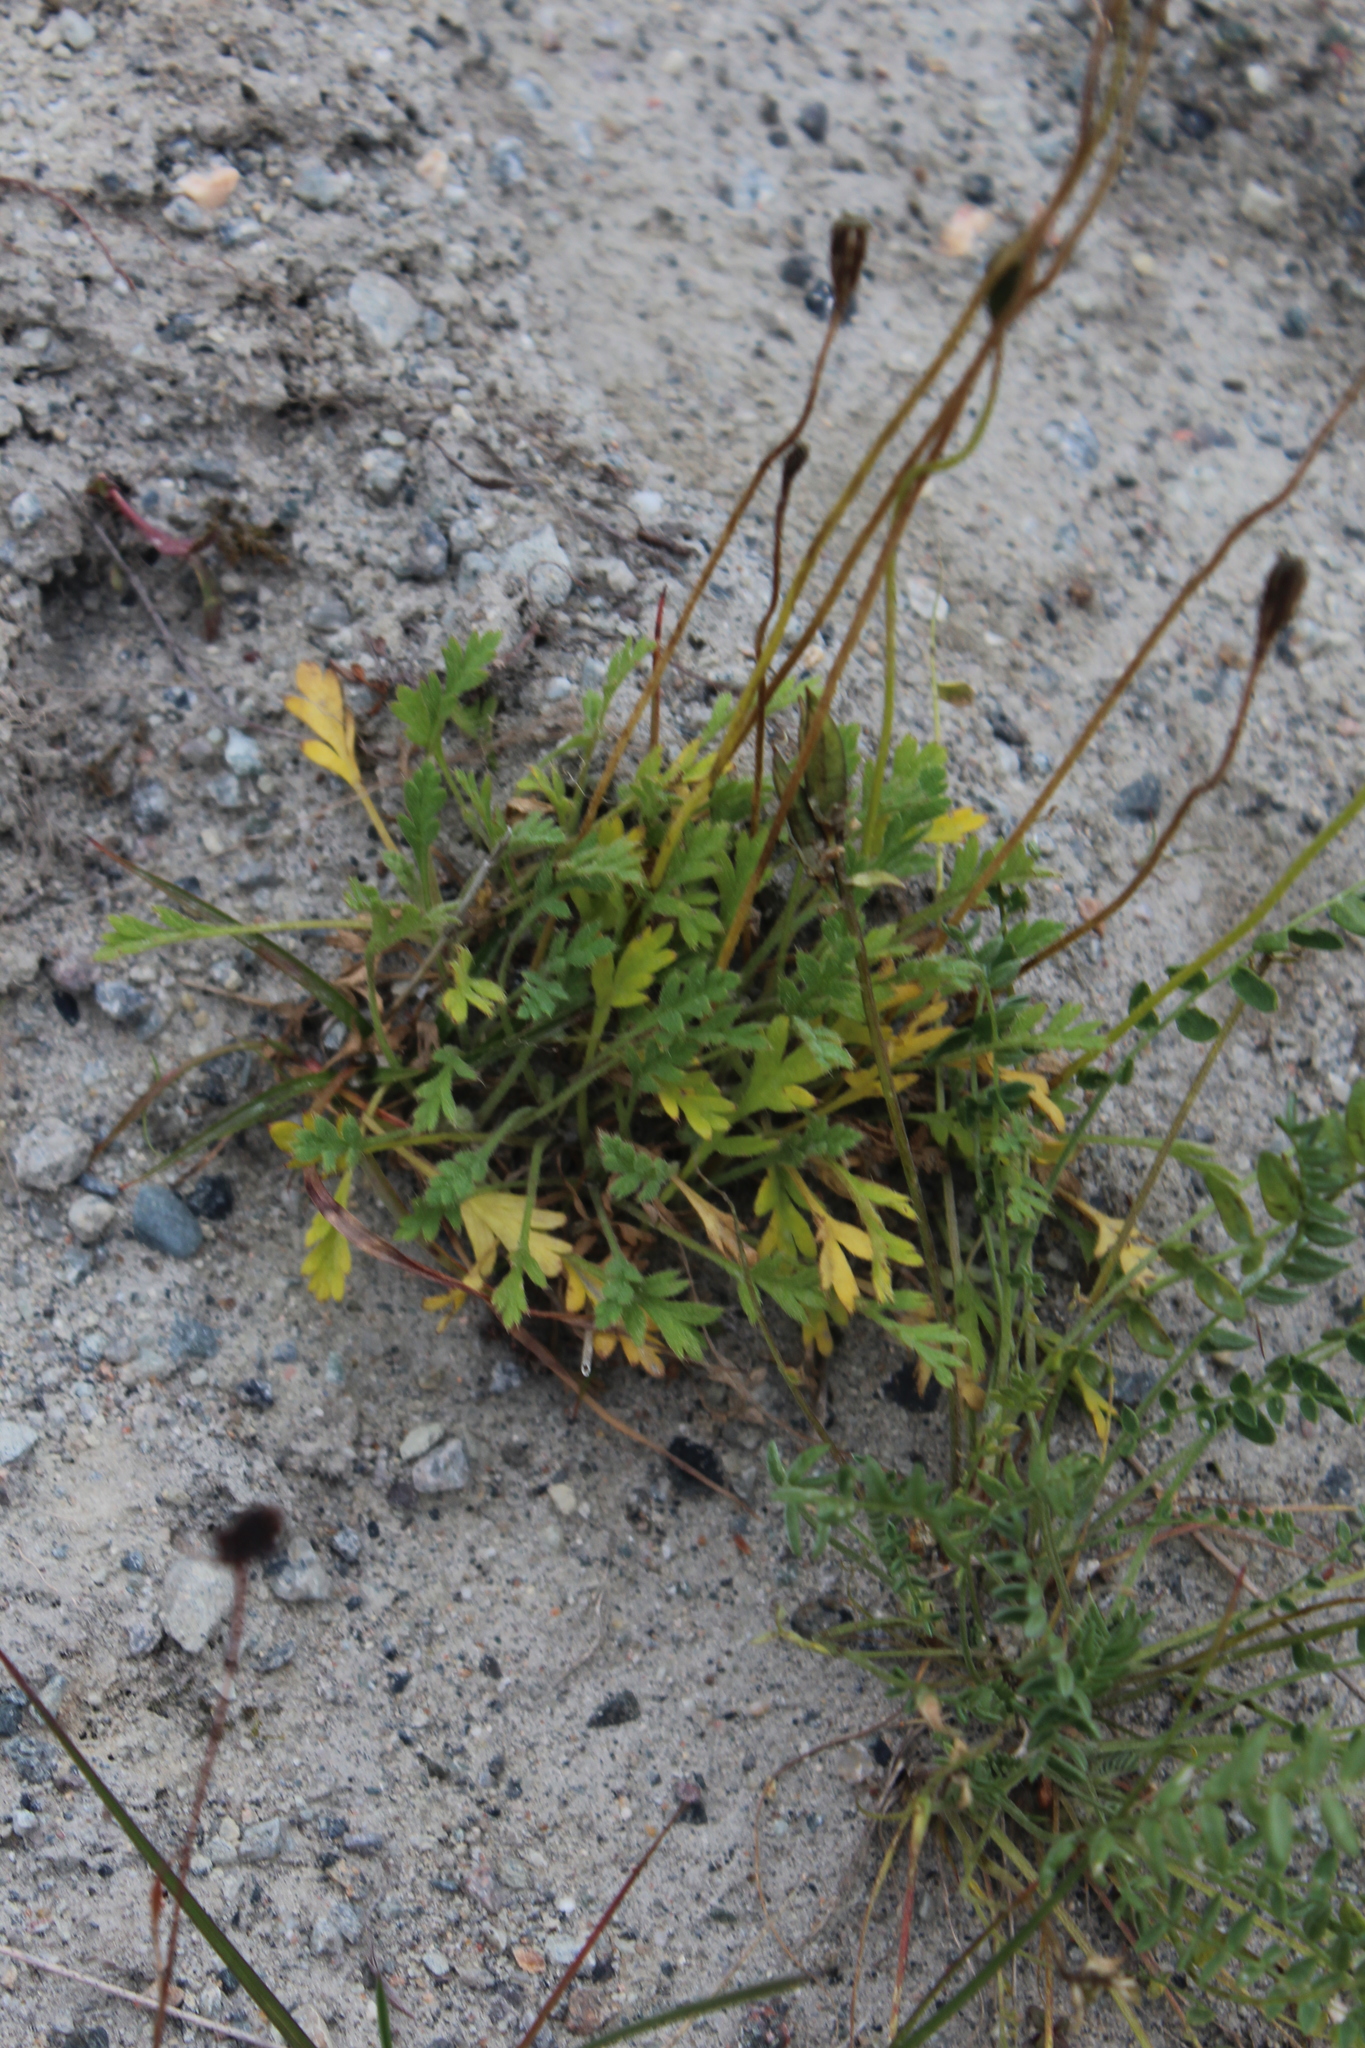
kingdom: Plantae
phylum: Tracheophyta
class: Magnoliopsida
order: Ranunculales
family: Papaveraceae
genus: Papaver
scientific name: Papaver lapponicum
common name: Lapland poppy
